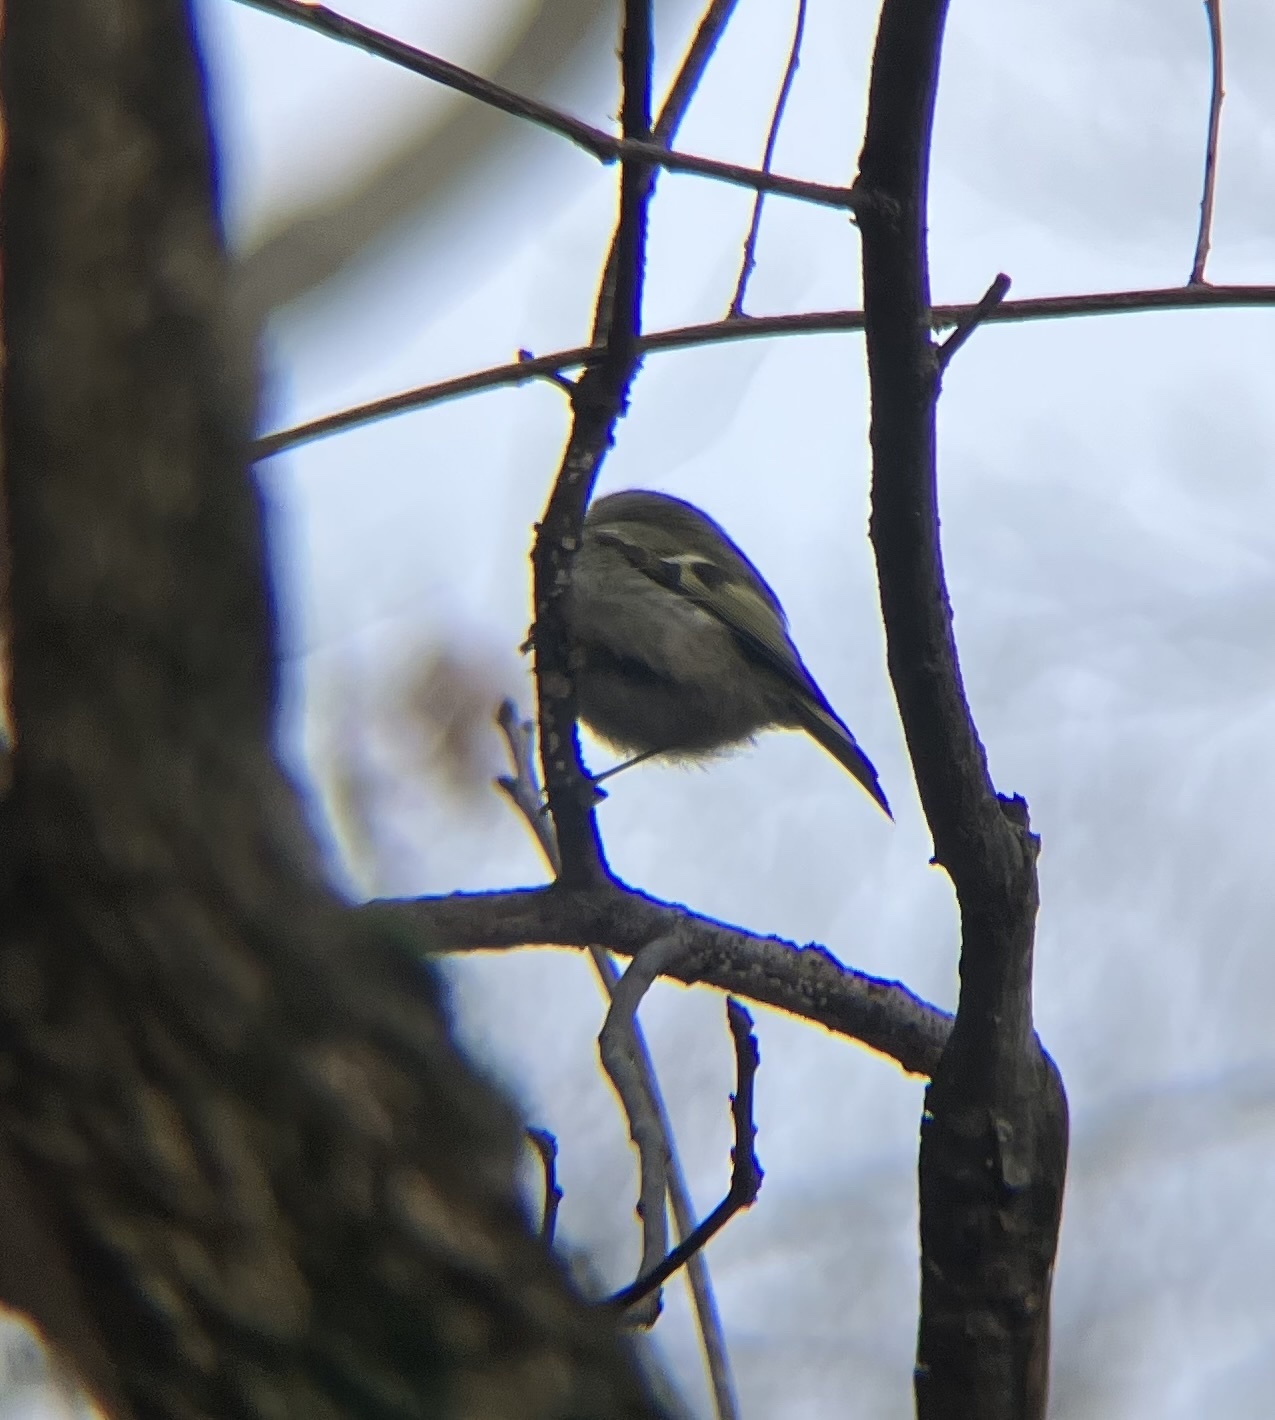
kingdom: Animalia
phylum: Chordata
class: Aves
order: Passeriformes
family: Regulidae
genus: Regulus
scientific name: Regulus satrapa
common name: Golden-crowned kinglet
